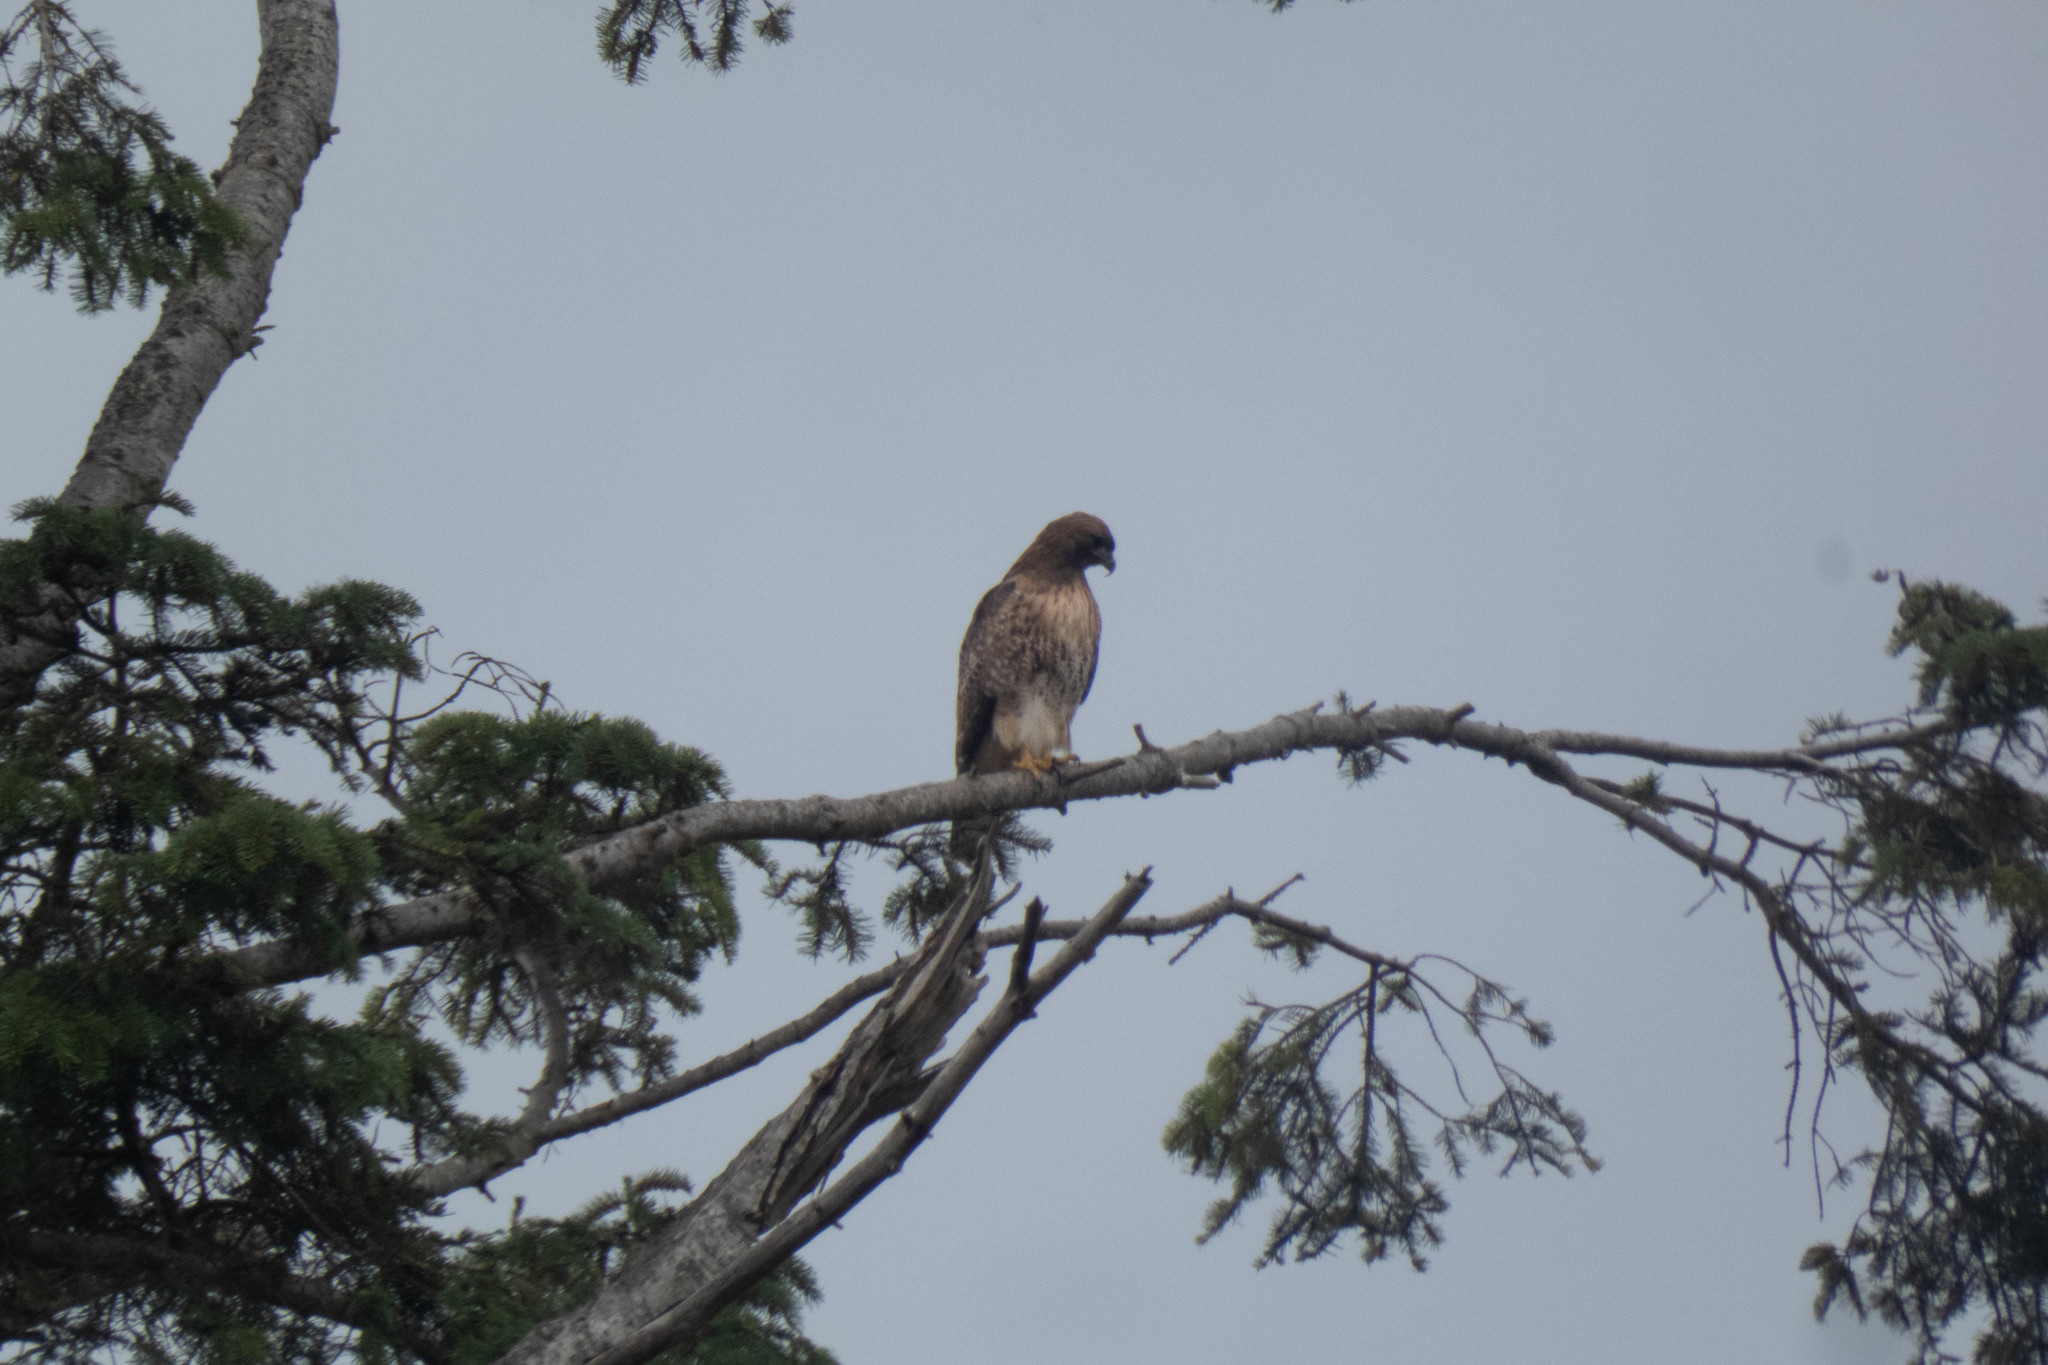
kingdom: Animalia
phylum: Chordata
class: Aves
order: Accipitriformes
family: Accipitridae
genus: Buteo
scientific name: Buteo jamaicensis
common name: Red-tailed hawk
